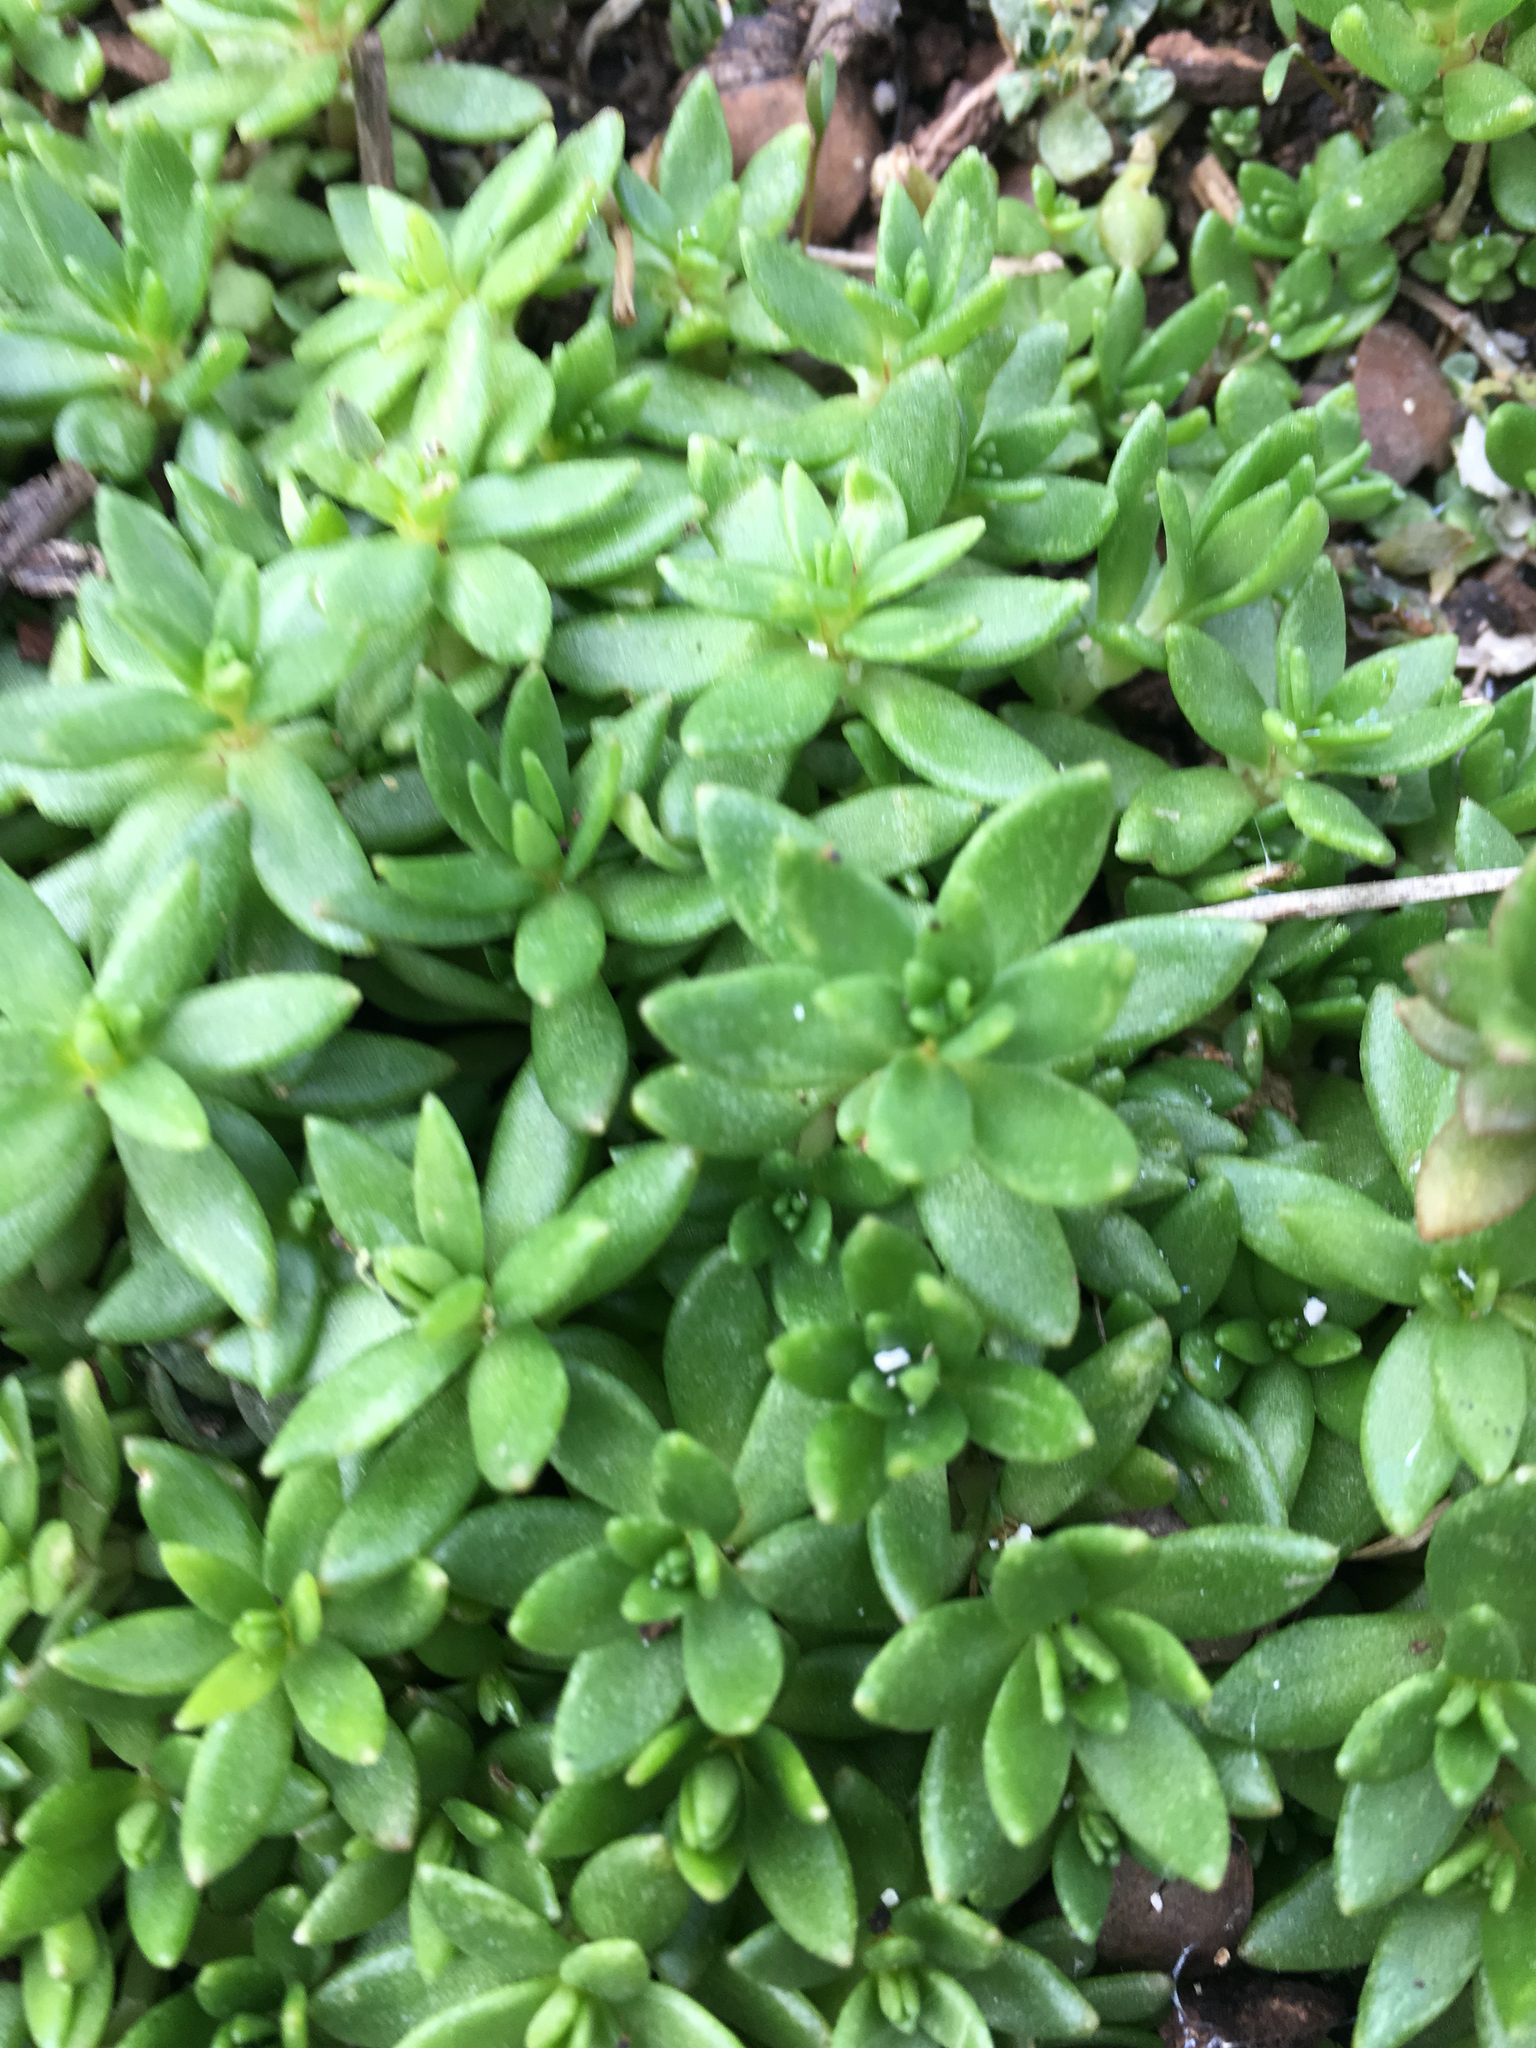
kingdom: Plantae
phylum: Tracheophyta
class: Magnoliopsida
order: Saxifragales
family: Crassulaceae
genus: Sedum
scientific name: Sedum sarmentosum
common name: Stringy stonecrop
